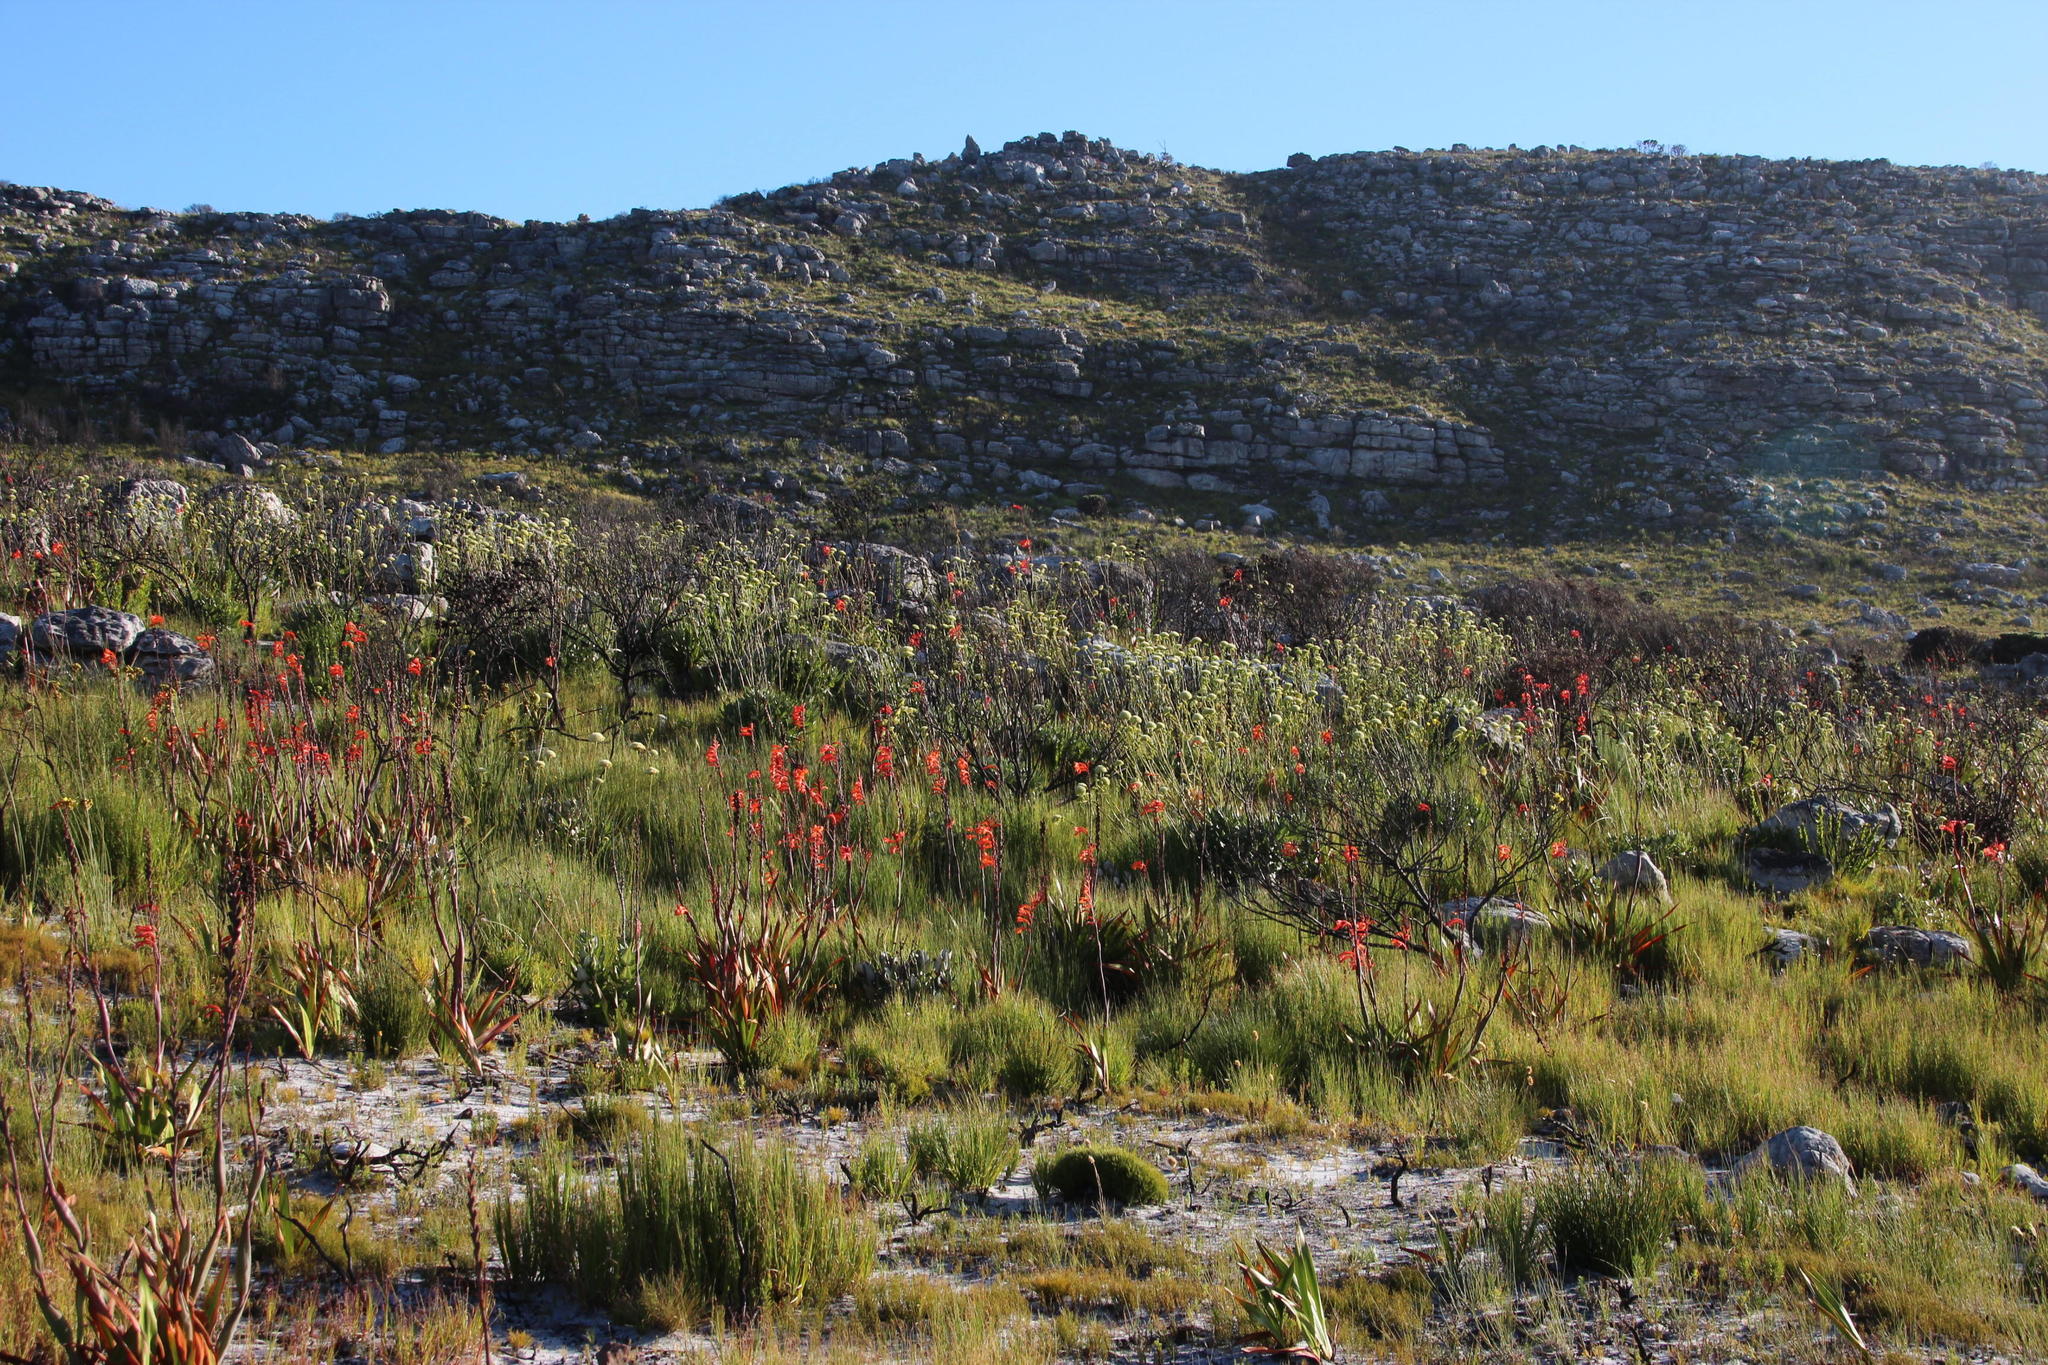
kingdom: Plantae
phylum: Tracheophyta
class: Liliopsida
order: Asparagales
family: Iridaceae
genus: Watsonia
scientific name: Watsonia tabularis
